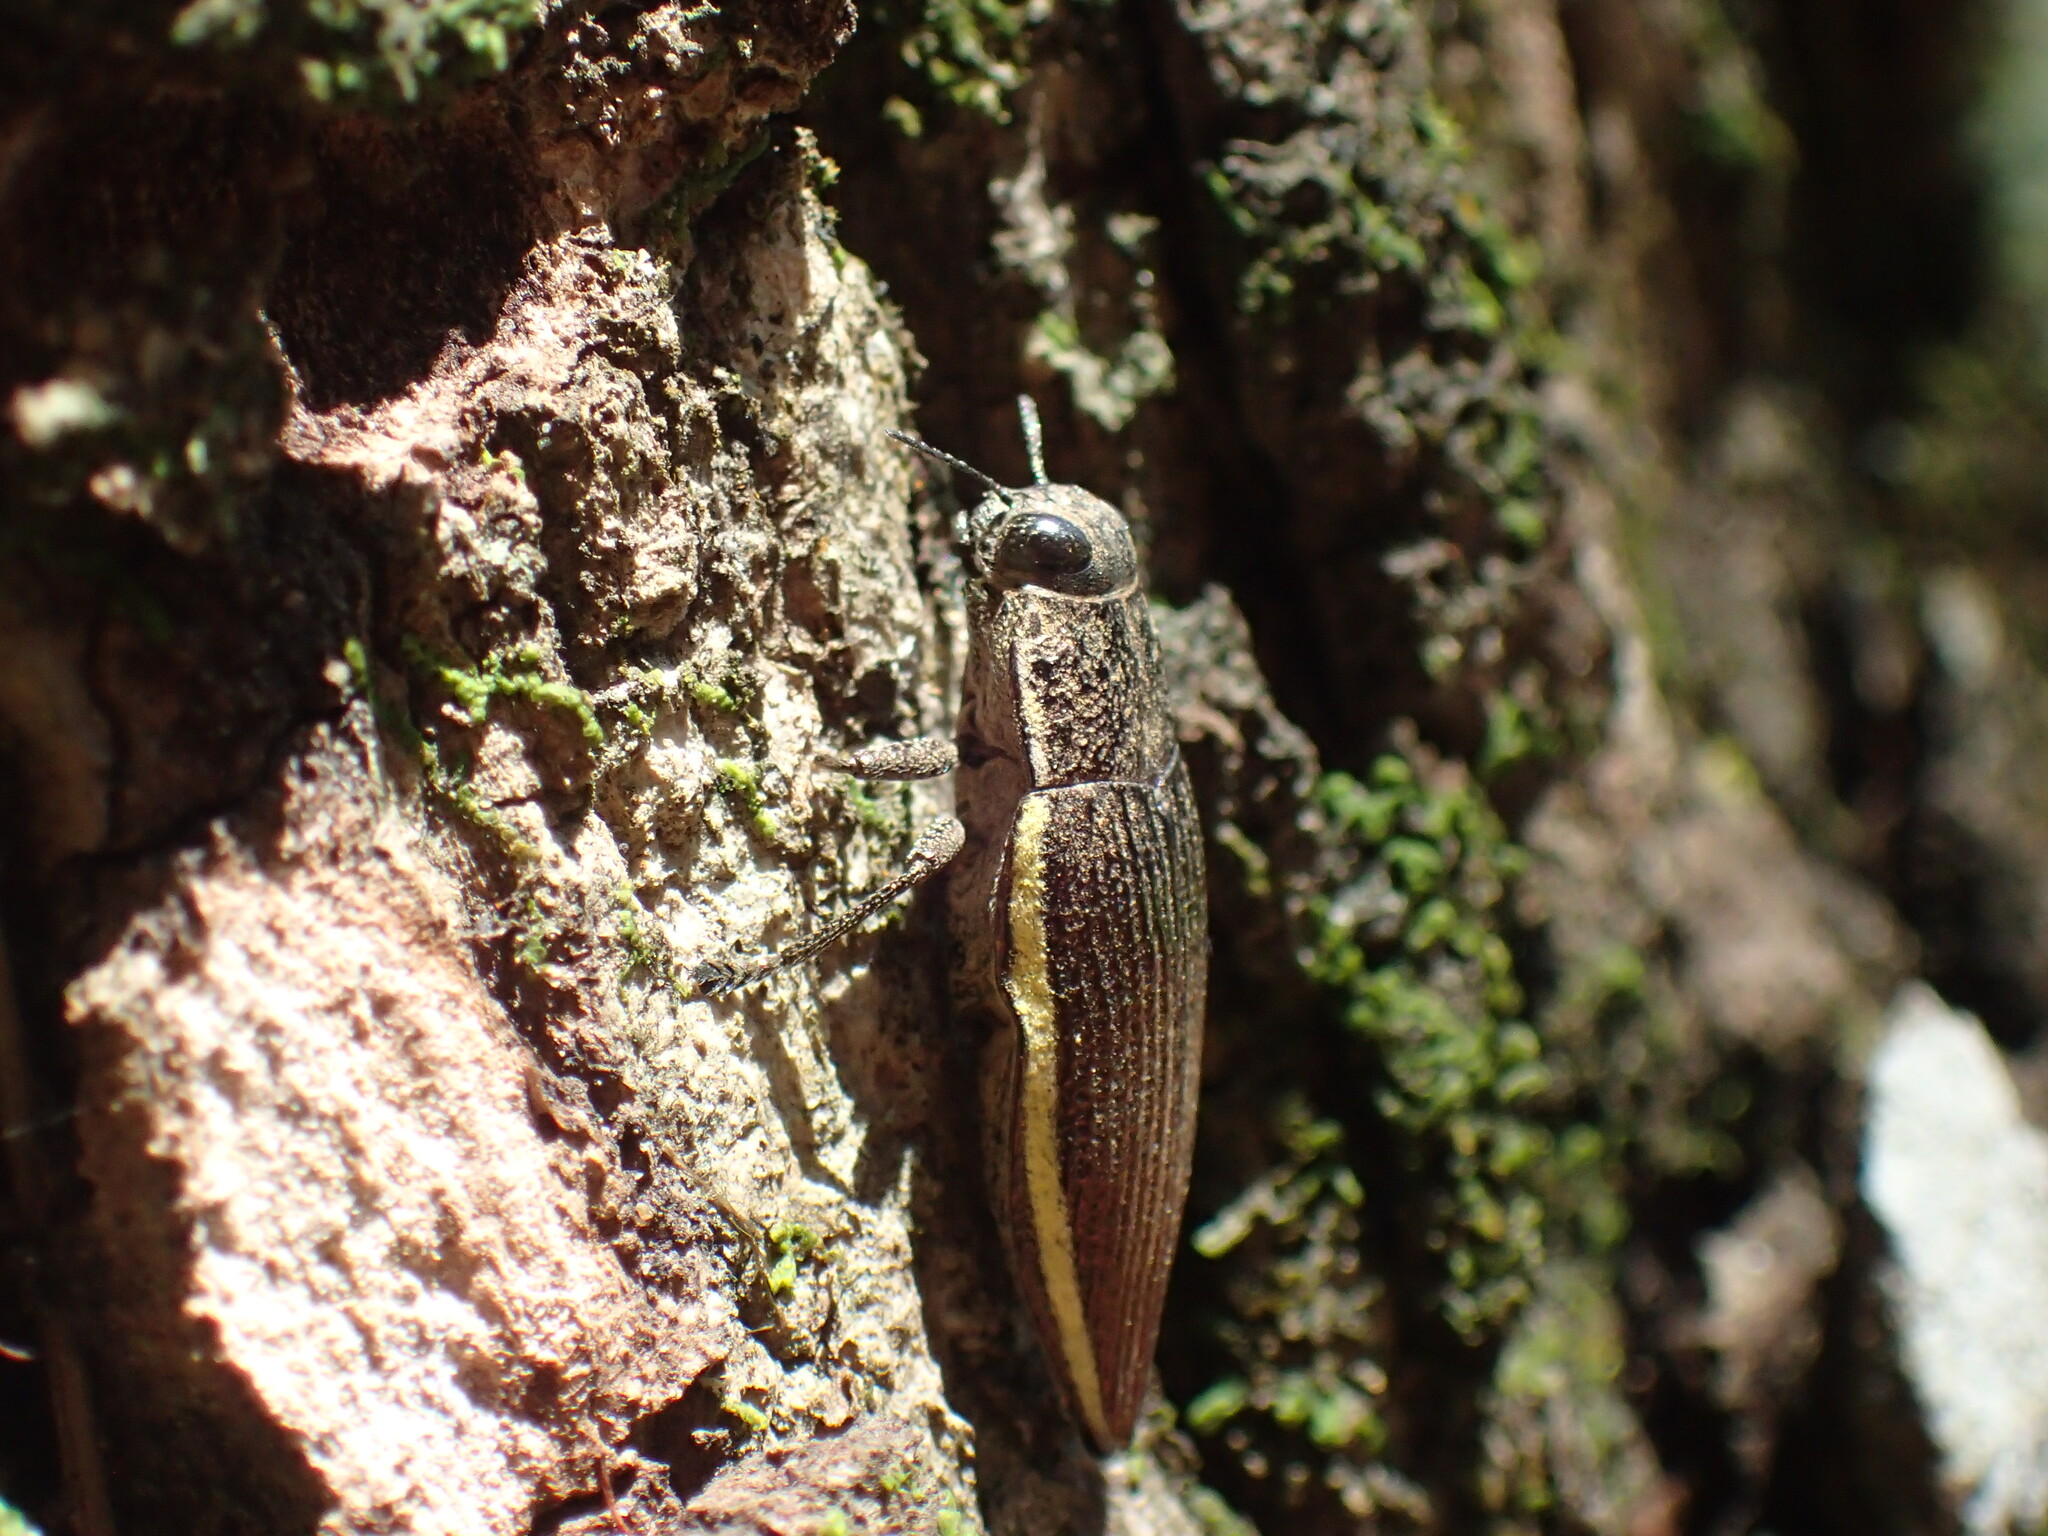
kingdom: Animalia
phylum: Arthropoda
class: Insecta
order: Coleoptera
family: Buprestidae
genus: Lampetis
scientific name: Lampetis albomarginata
